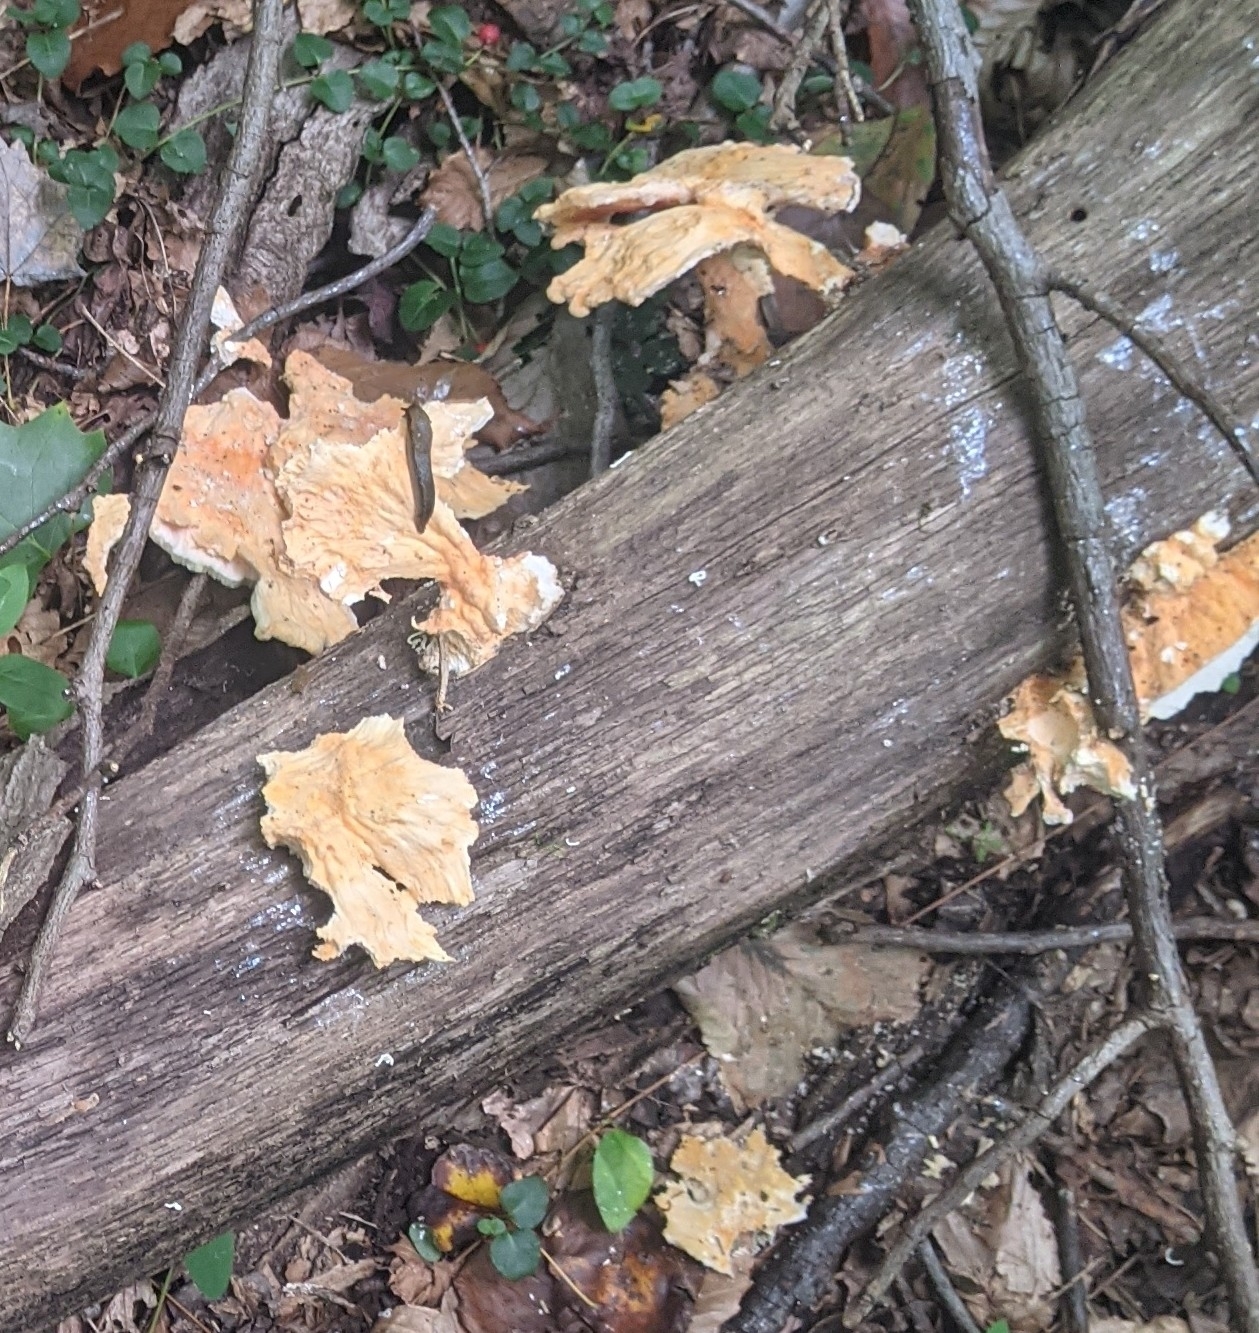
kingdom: Fungi
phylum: Basidiomycota
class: Agaricomycetes
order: Polyporales
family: Laetiporaceae
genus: Laetiporus
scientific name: Laetiporus sulphureus
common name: Chicken of the woods
